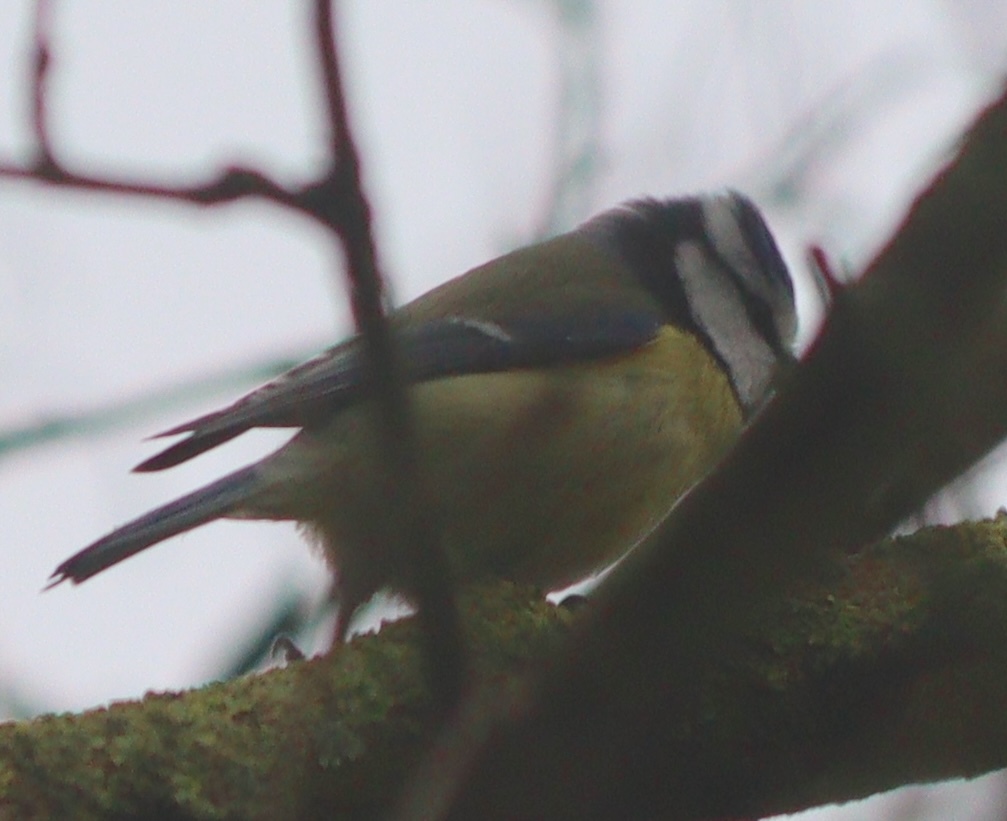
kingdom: Animalia
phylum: Chordata
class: Aves
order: Passeriformes
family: Paridae
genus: Cyanistes
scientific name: Cyanistes caeruleus
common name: Eurasian blue tit
